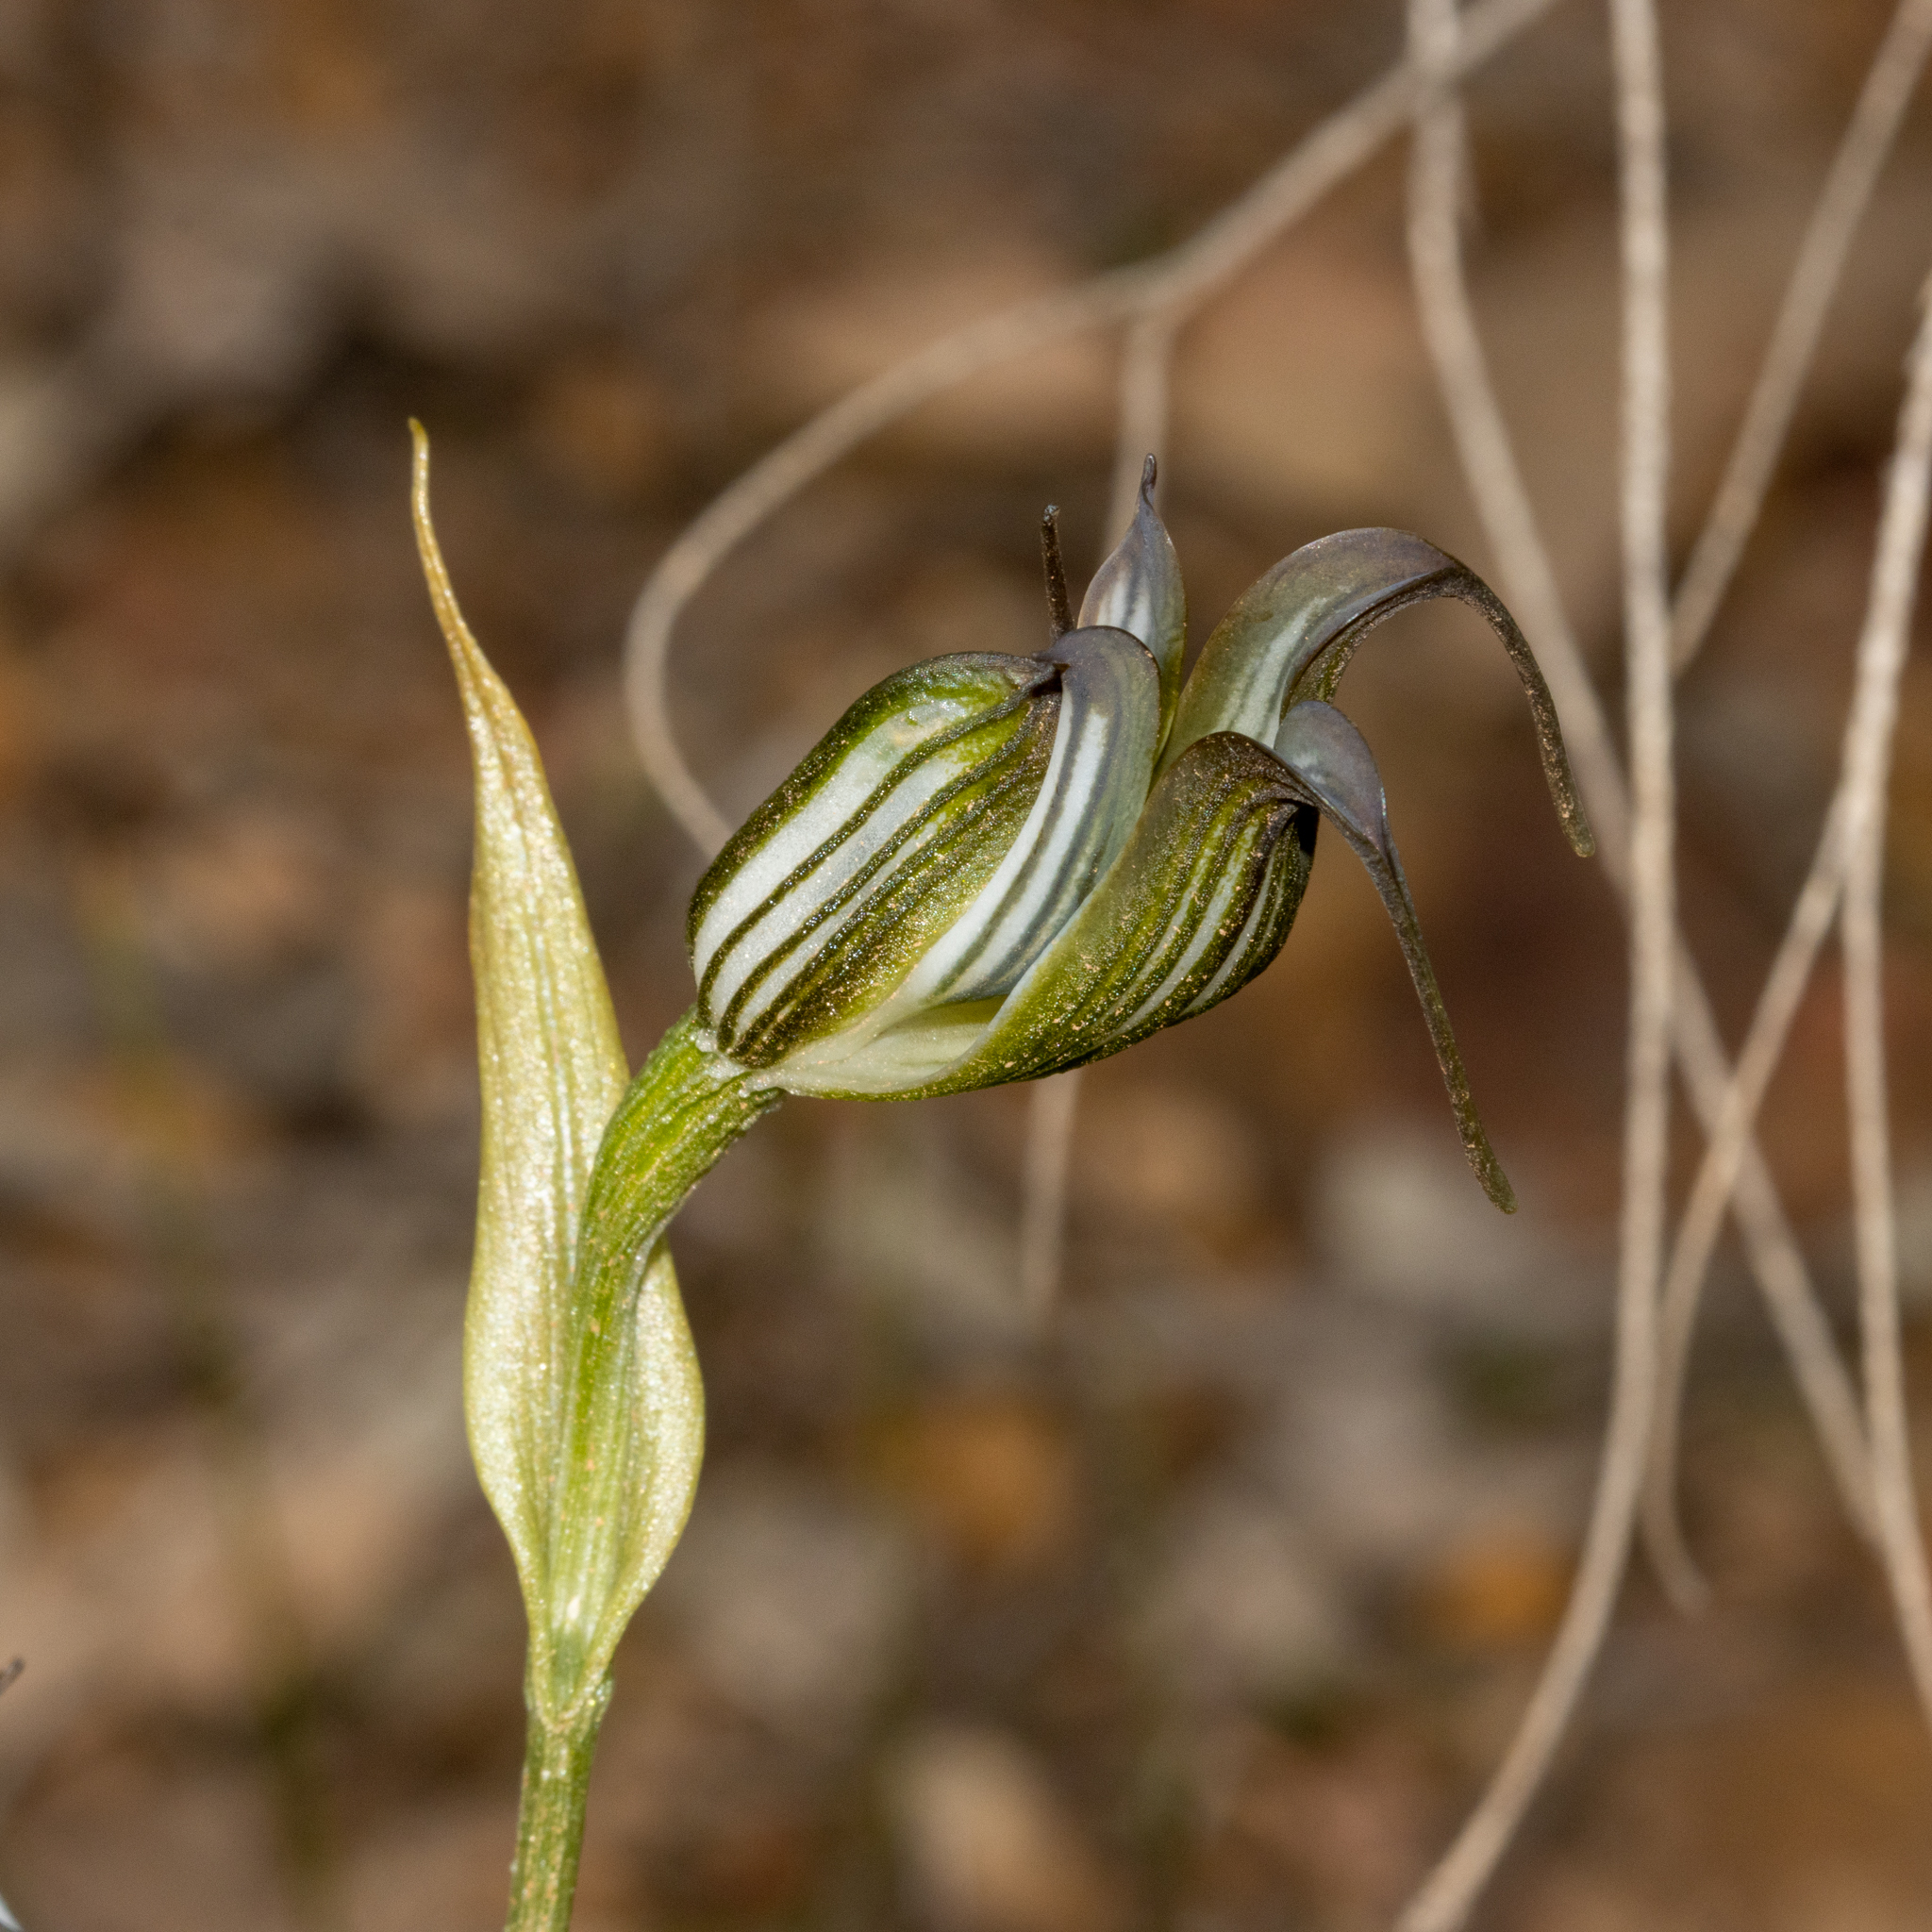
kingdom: Plantae
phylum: Tracheophyta
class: Liliopsida
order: Asparagales
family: Orchidaceae
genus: Pterostylis
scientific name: Pterostylis recurva
